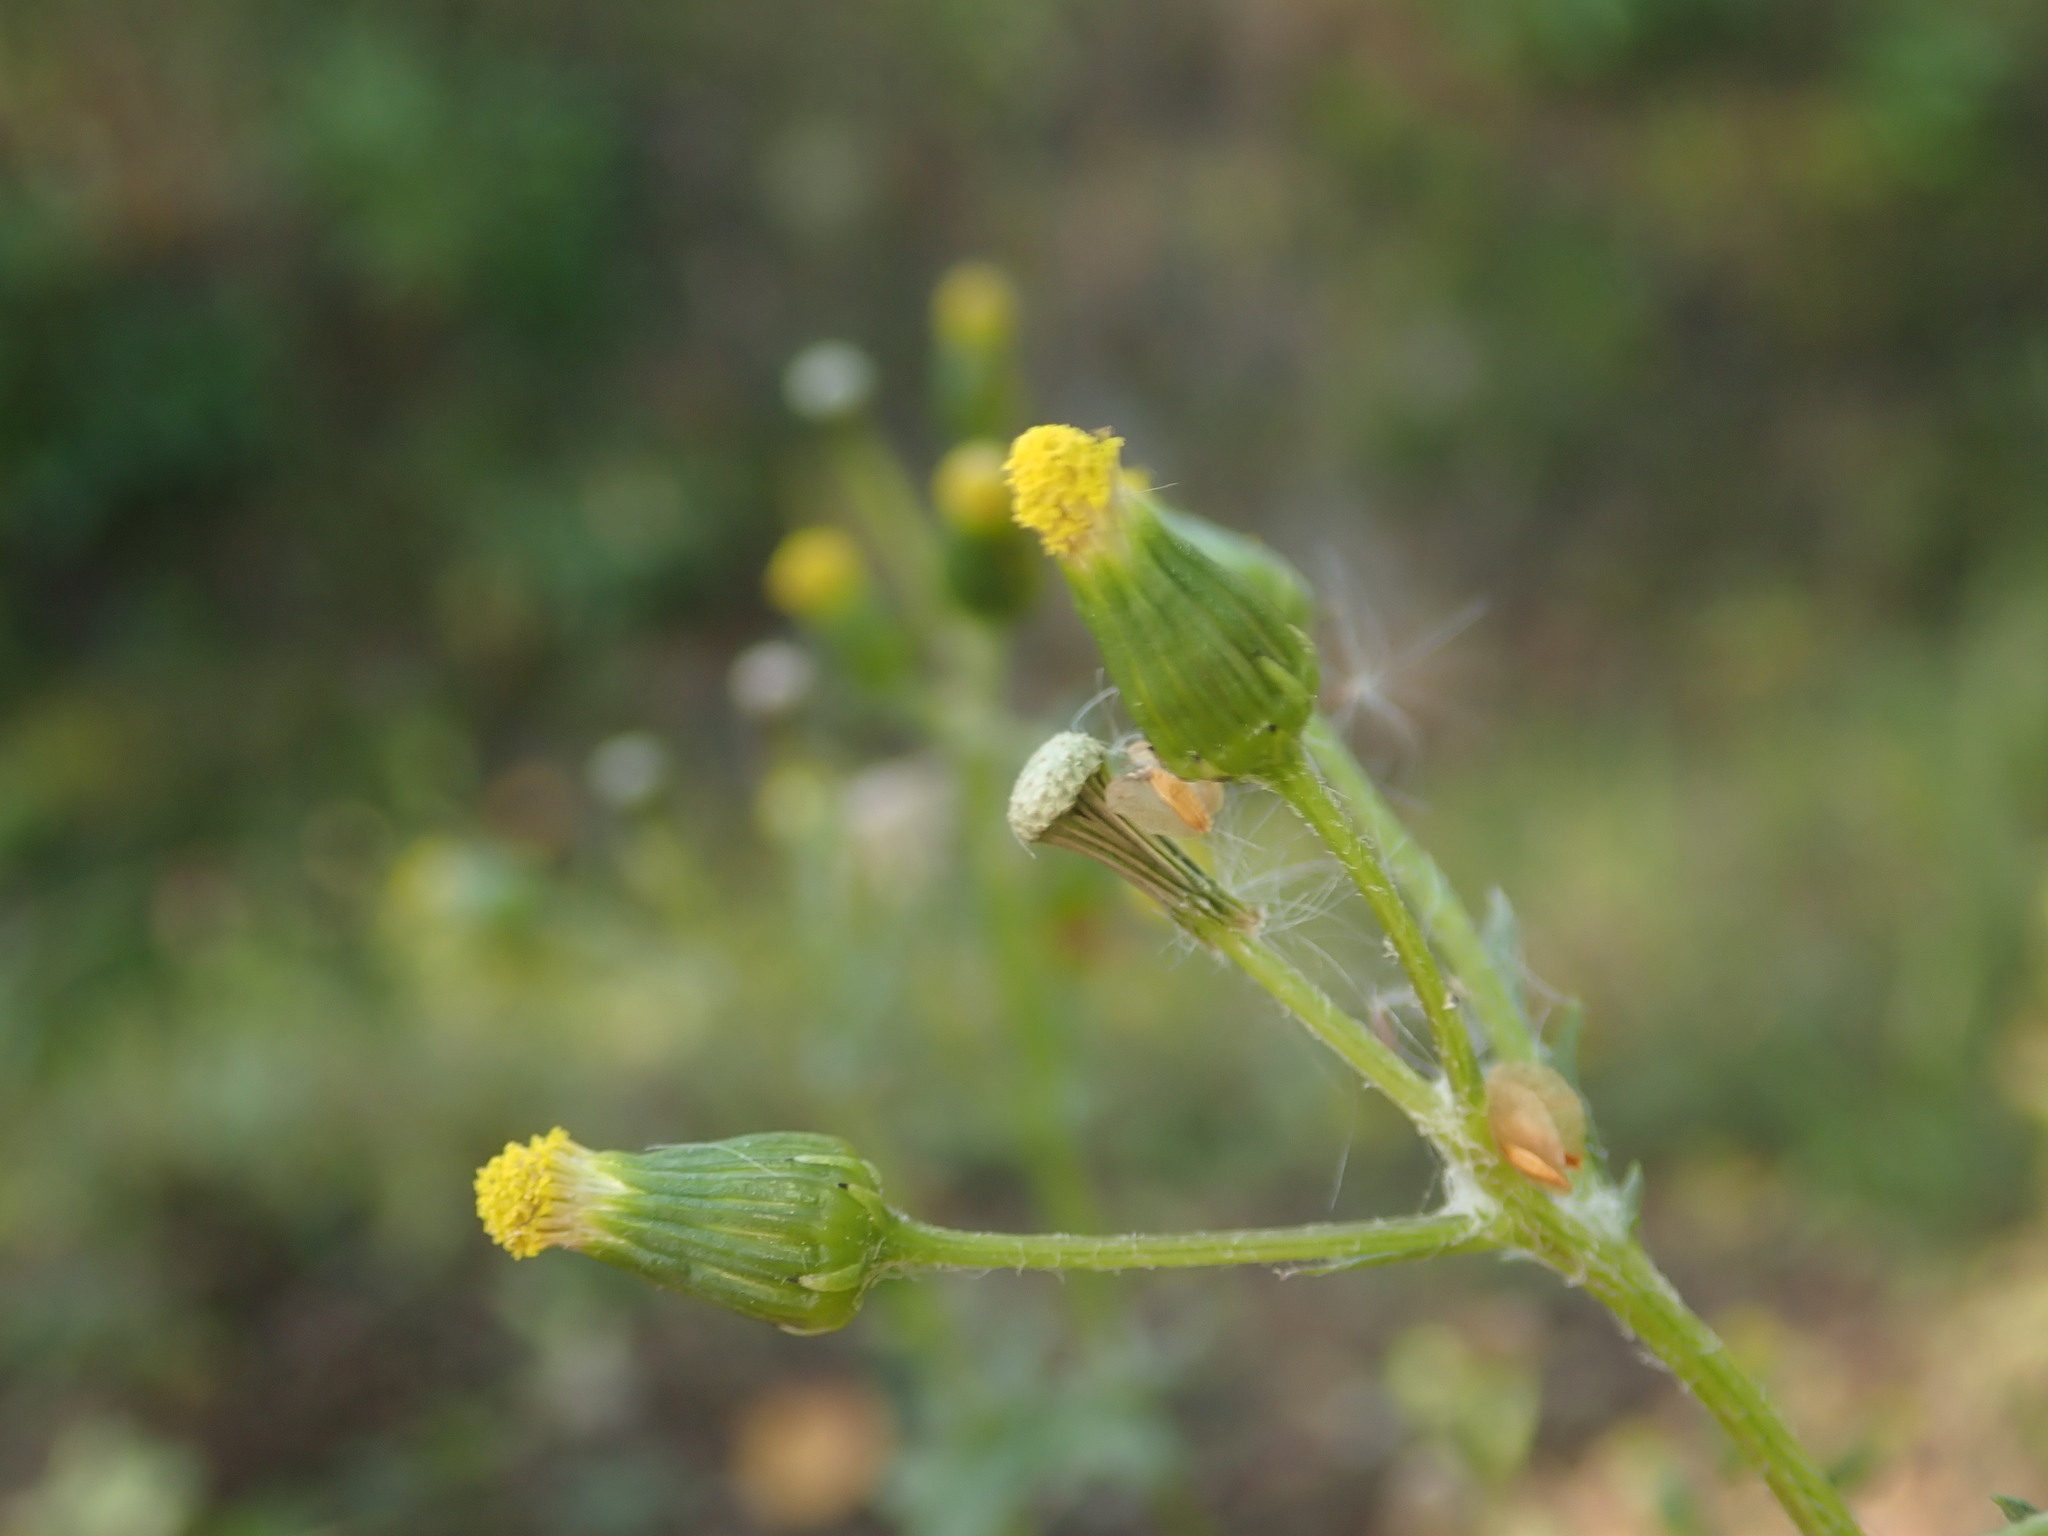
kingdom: Plantae
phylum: Tracheophyta
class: Magnoliopsida
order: Asterales
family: Asteraceae
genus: Senecio
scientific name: Senecio vulgaris
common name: Old-man-in-the-spring
